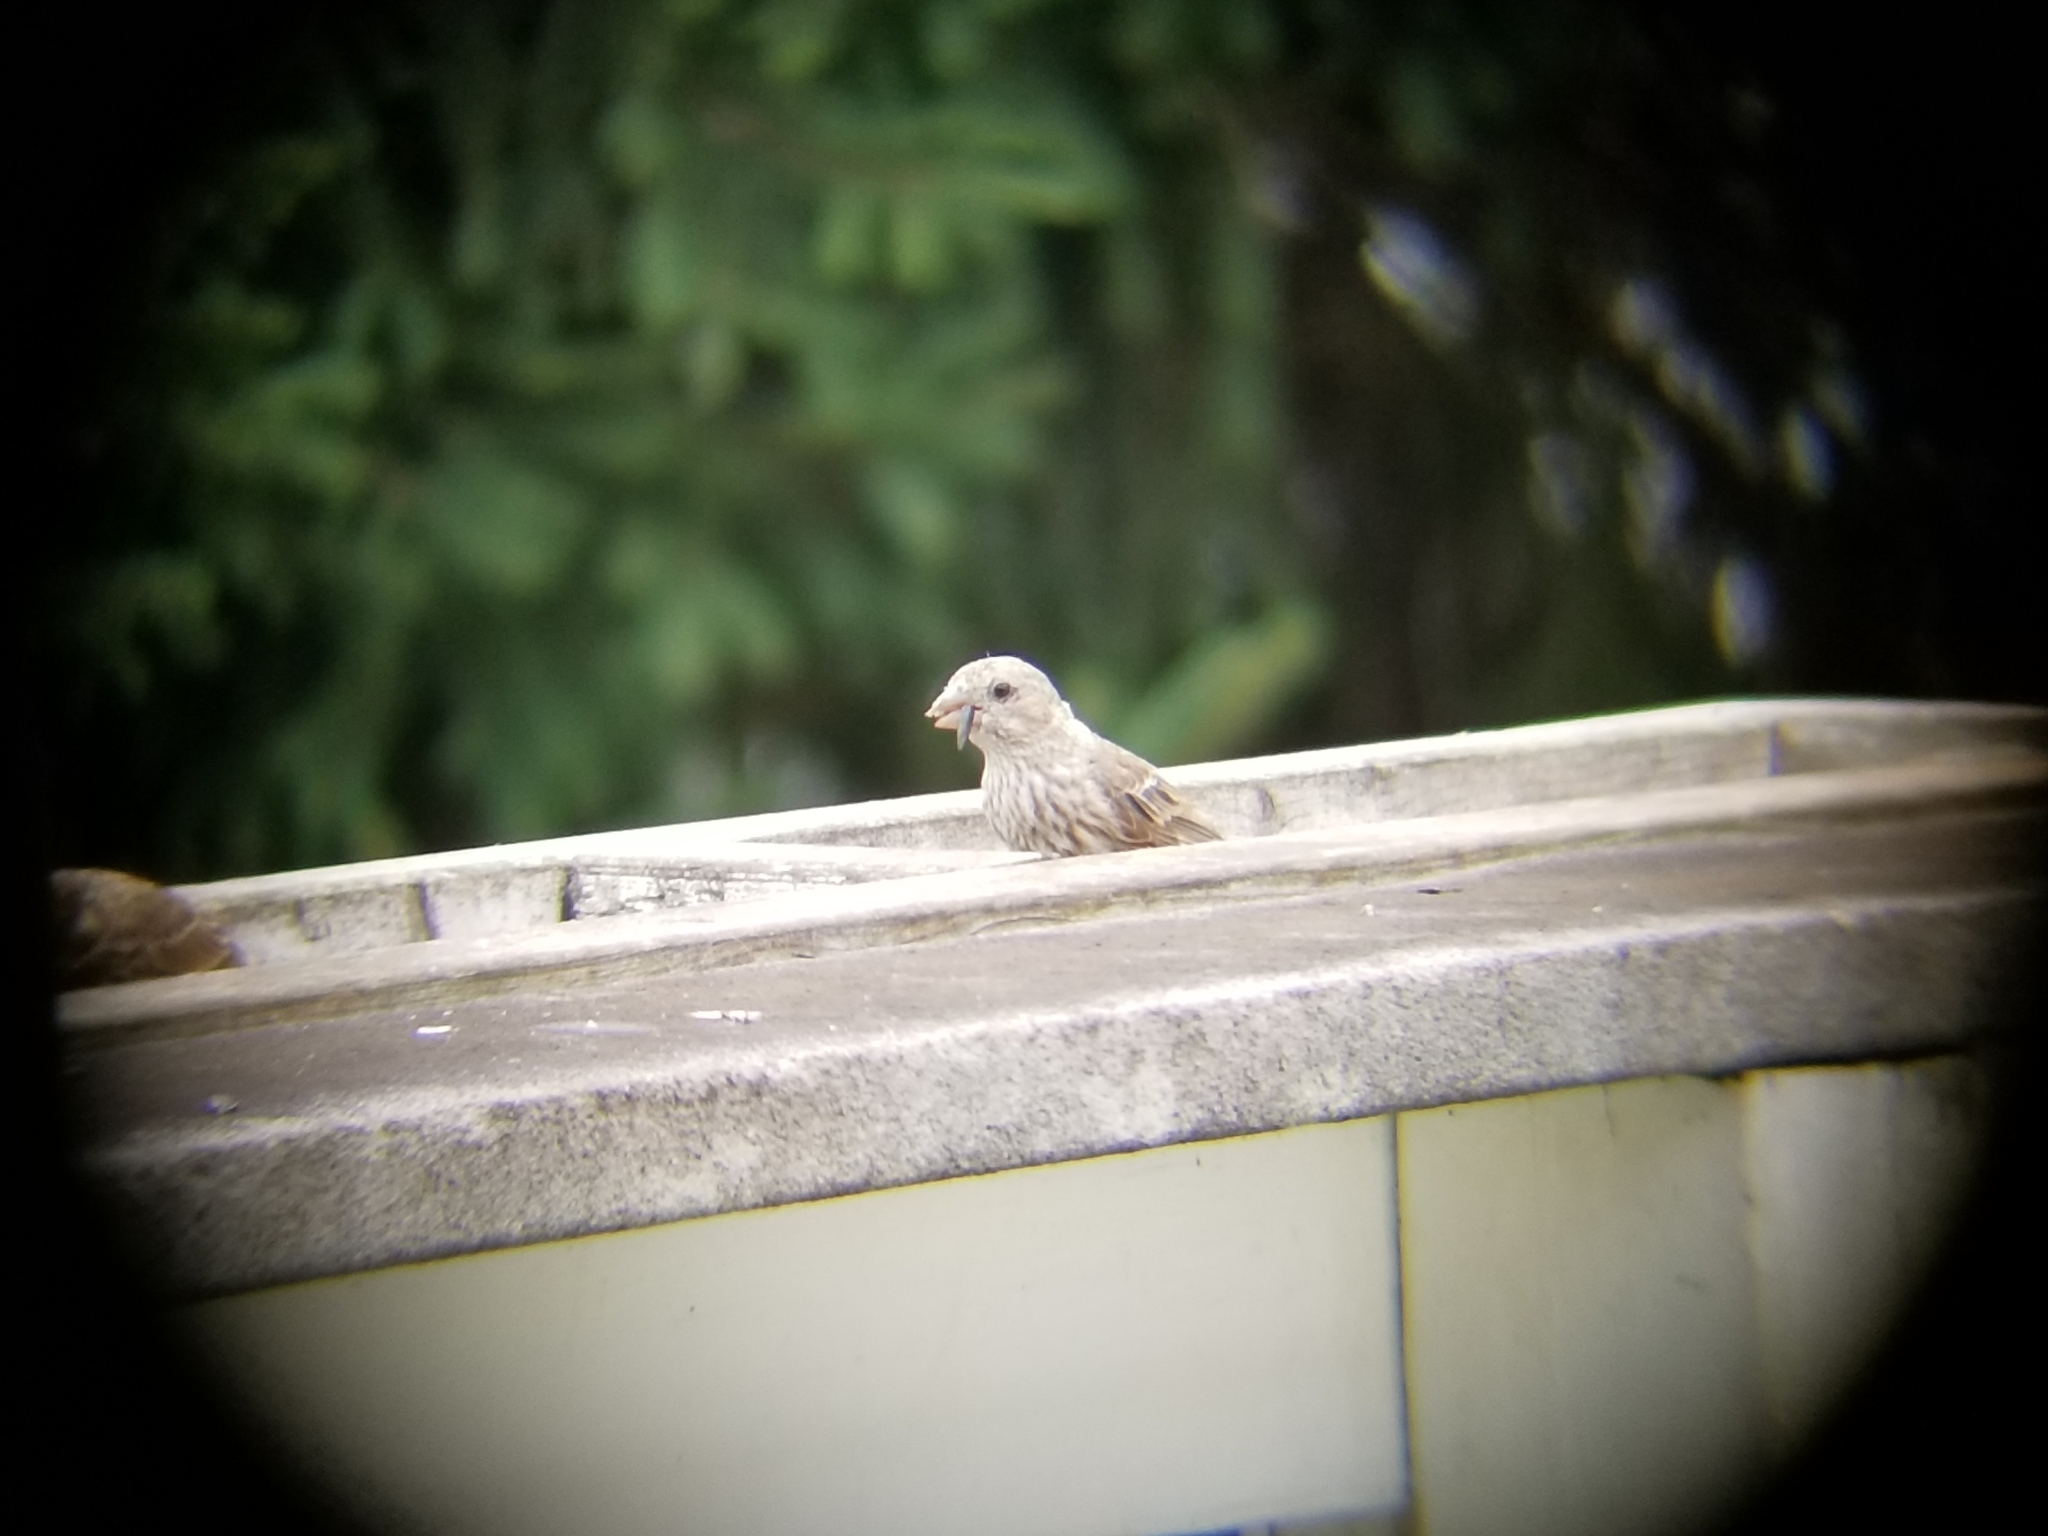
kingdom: Animalia
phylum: Chordata
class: Aves
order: Passeriformes
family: Fringillidae
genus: Haemorhous
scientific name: Haemorhous mexicanus
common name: House finch
